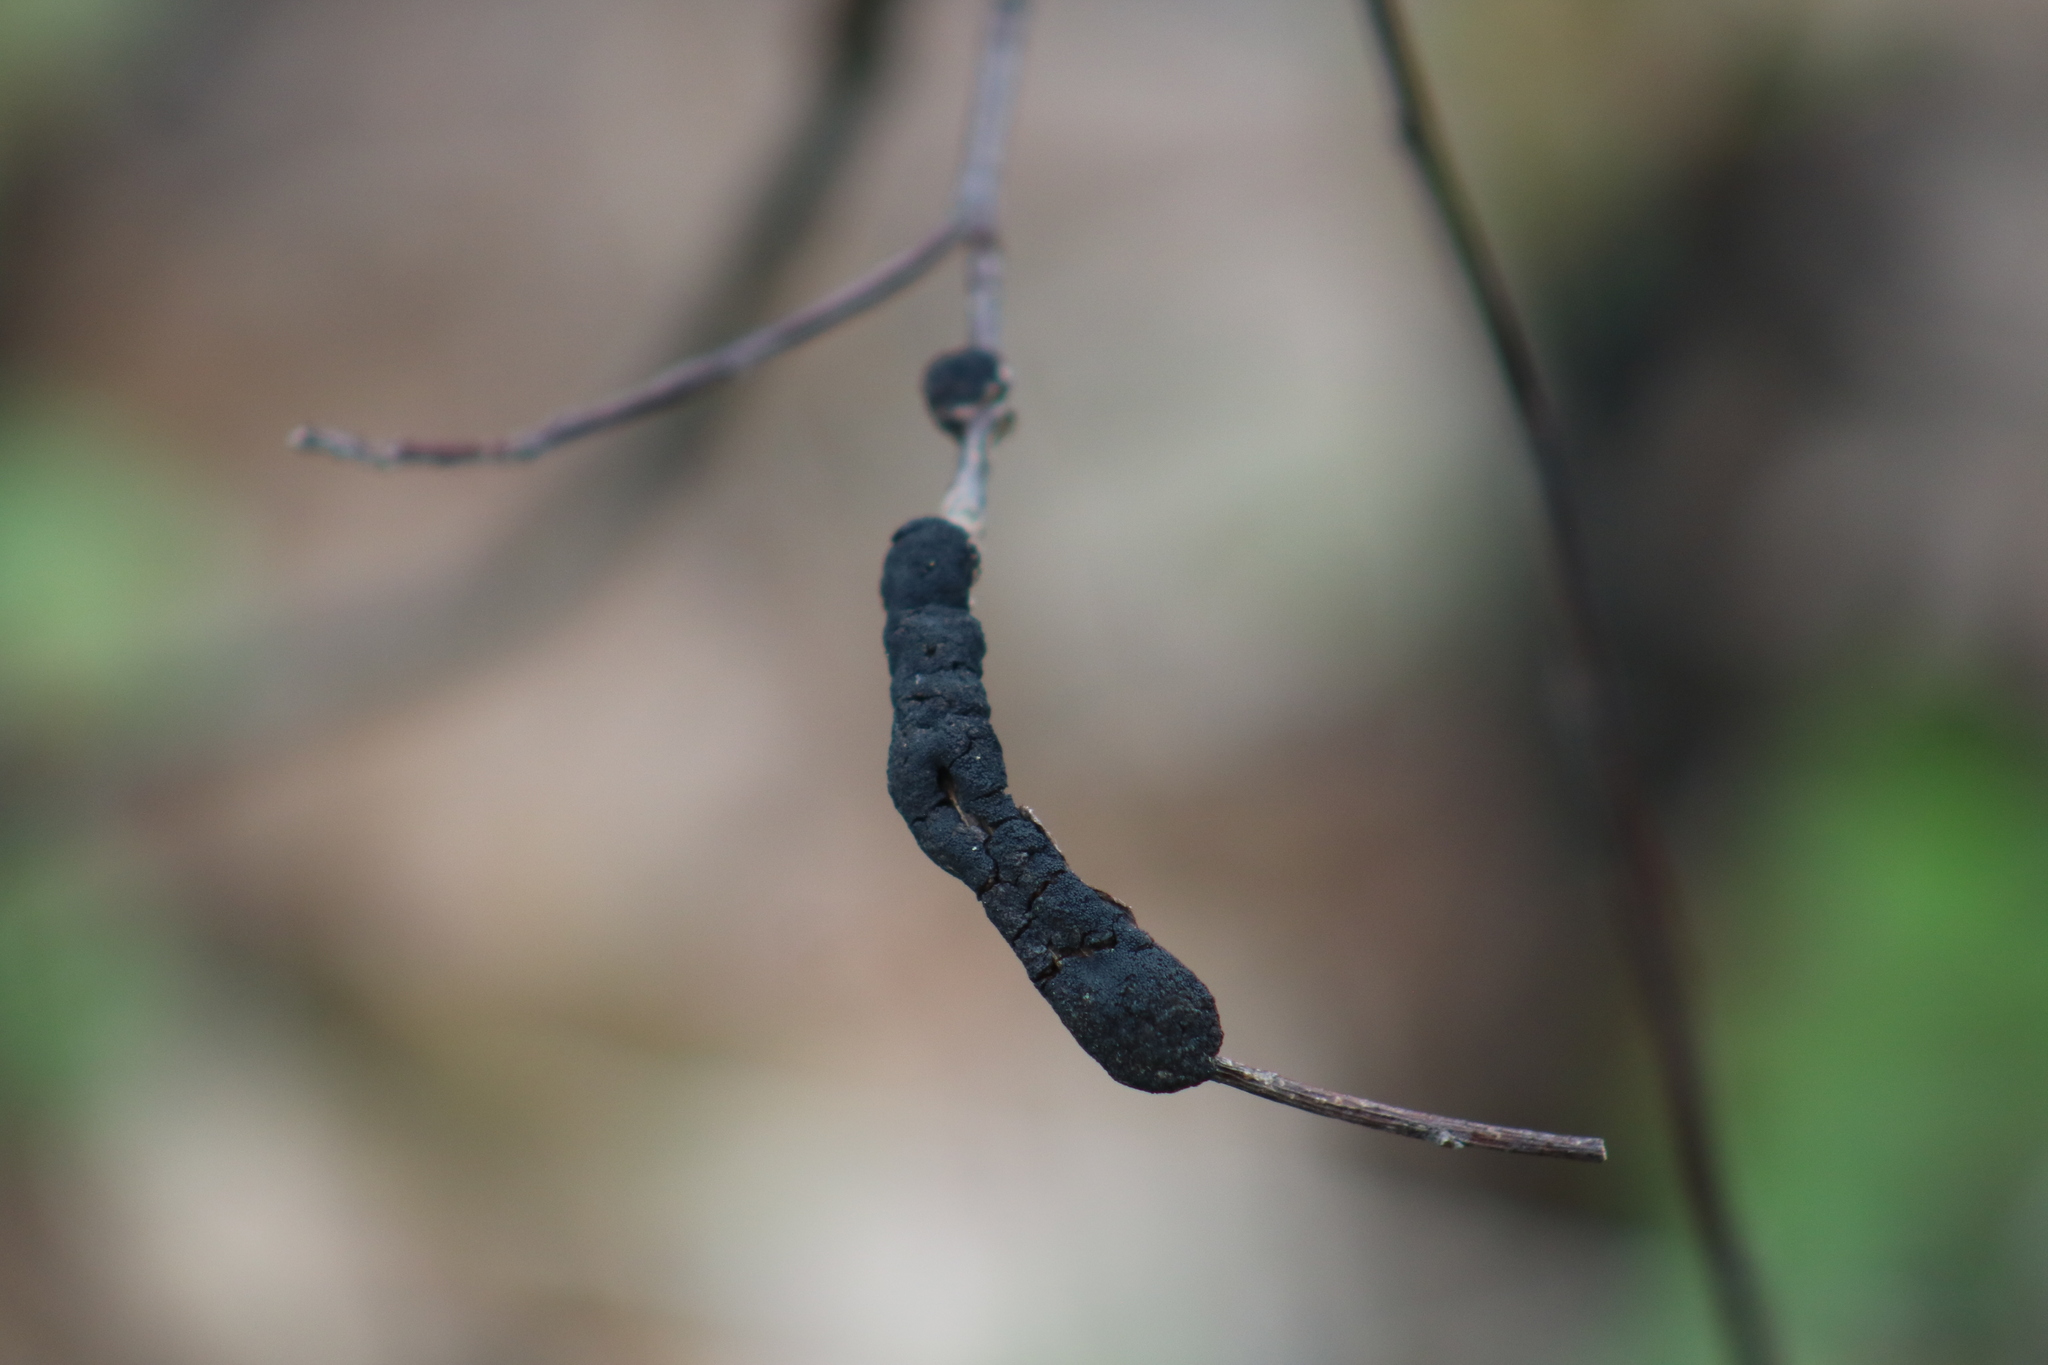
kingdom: Fungi
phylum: Ascomycota
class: Dothideomycetes
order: Venturiales
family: Venturiaceae
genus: Apiosporina
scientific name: Apiosporina morbosa
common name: Black knot
